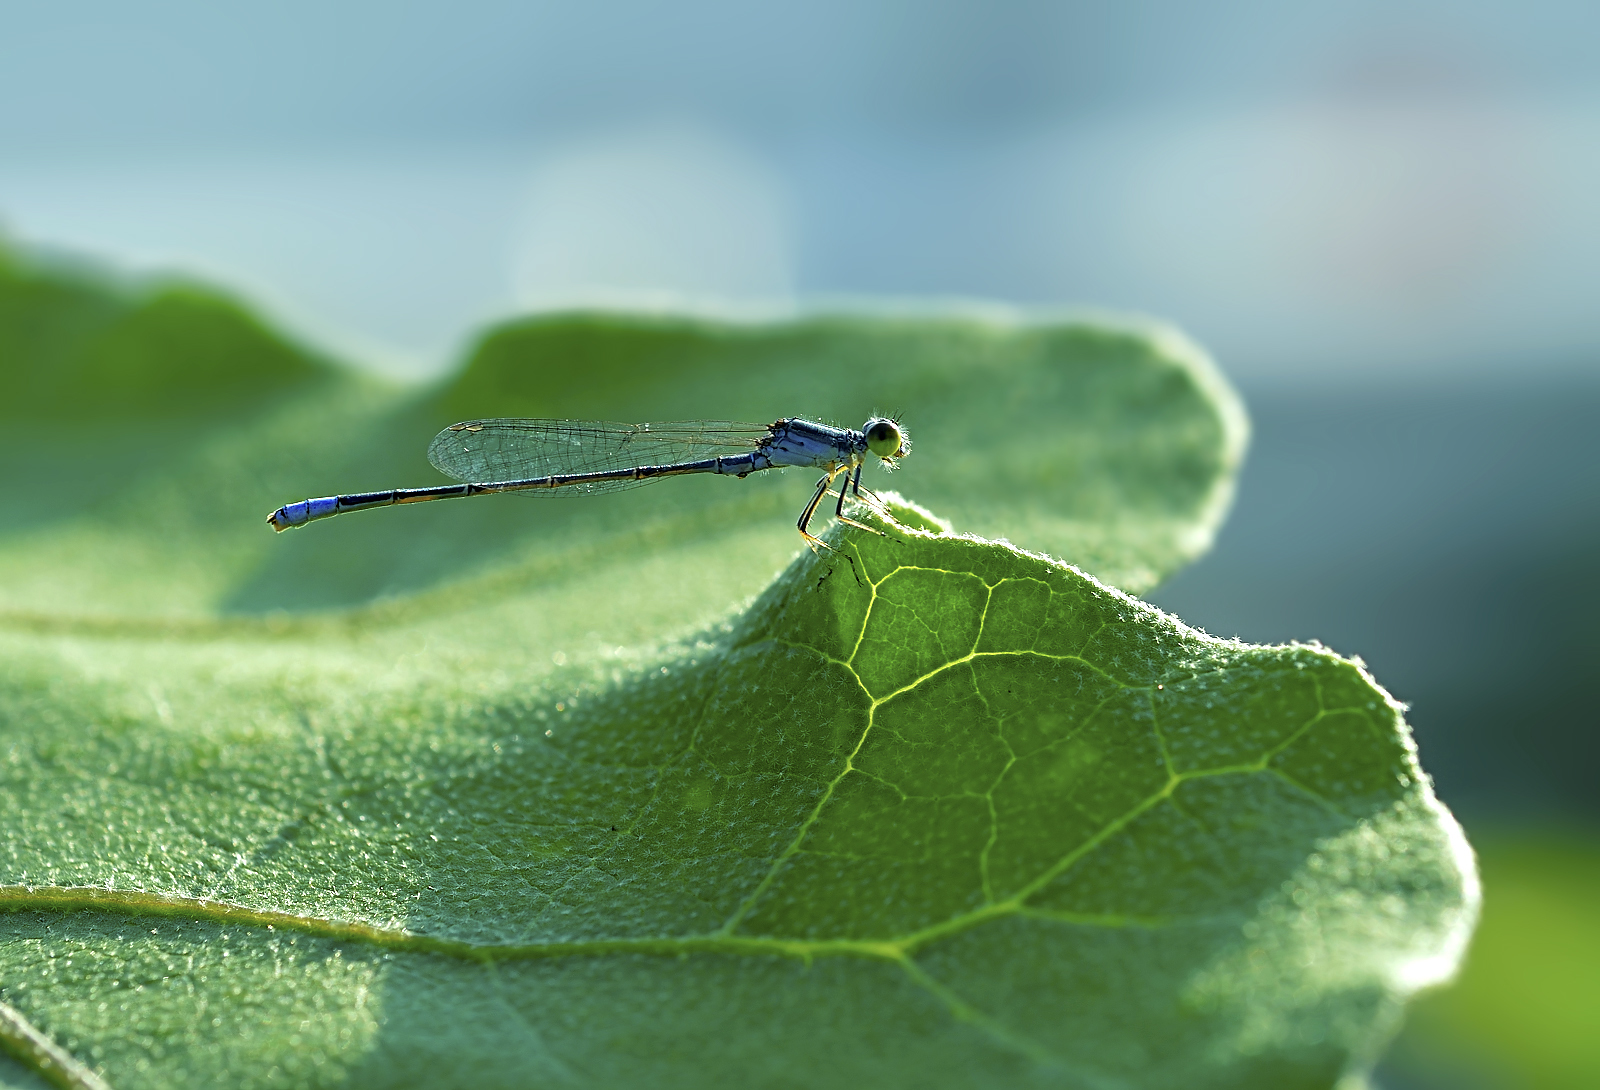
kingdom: Animalia
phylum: Arthropoda
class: Insecta
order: Odonata
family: Coenagrionidae
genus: Paracercion
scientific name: Paracercion calamorum
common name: Dusky lilysquatter
